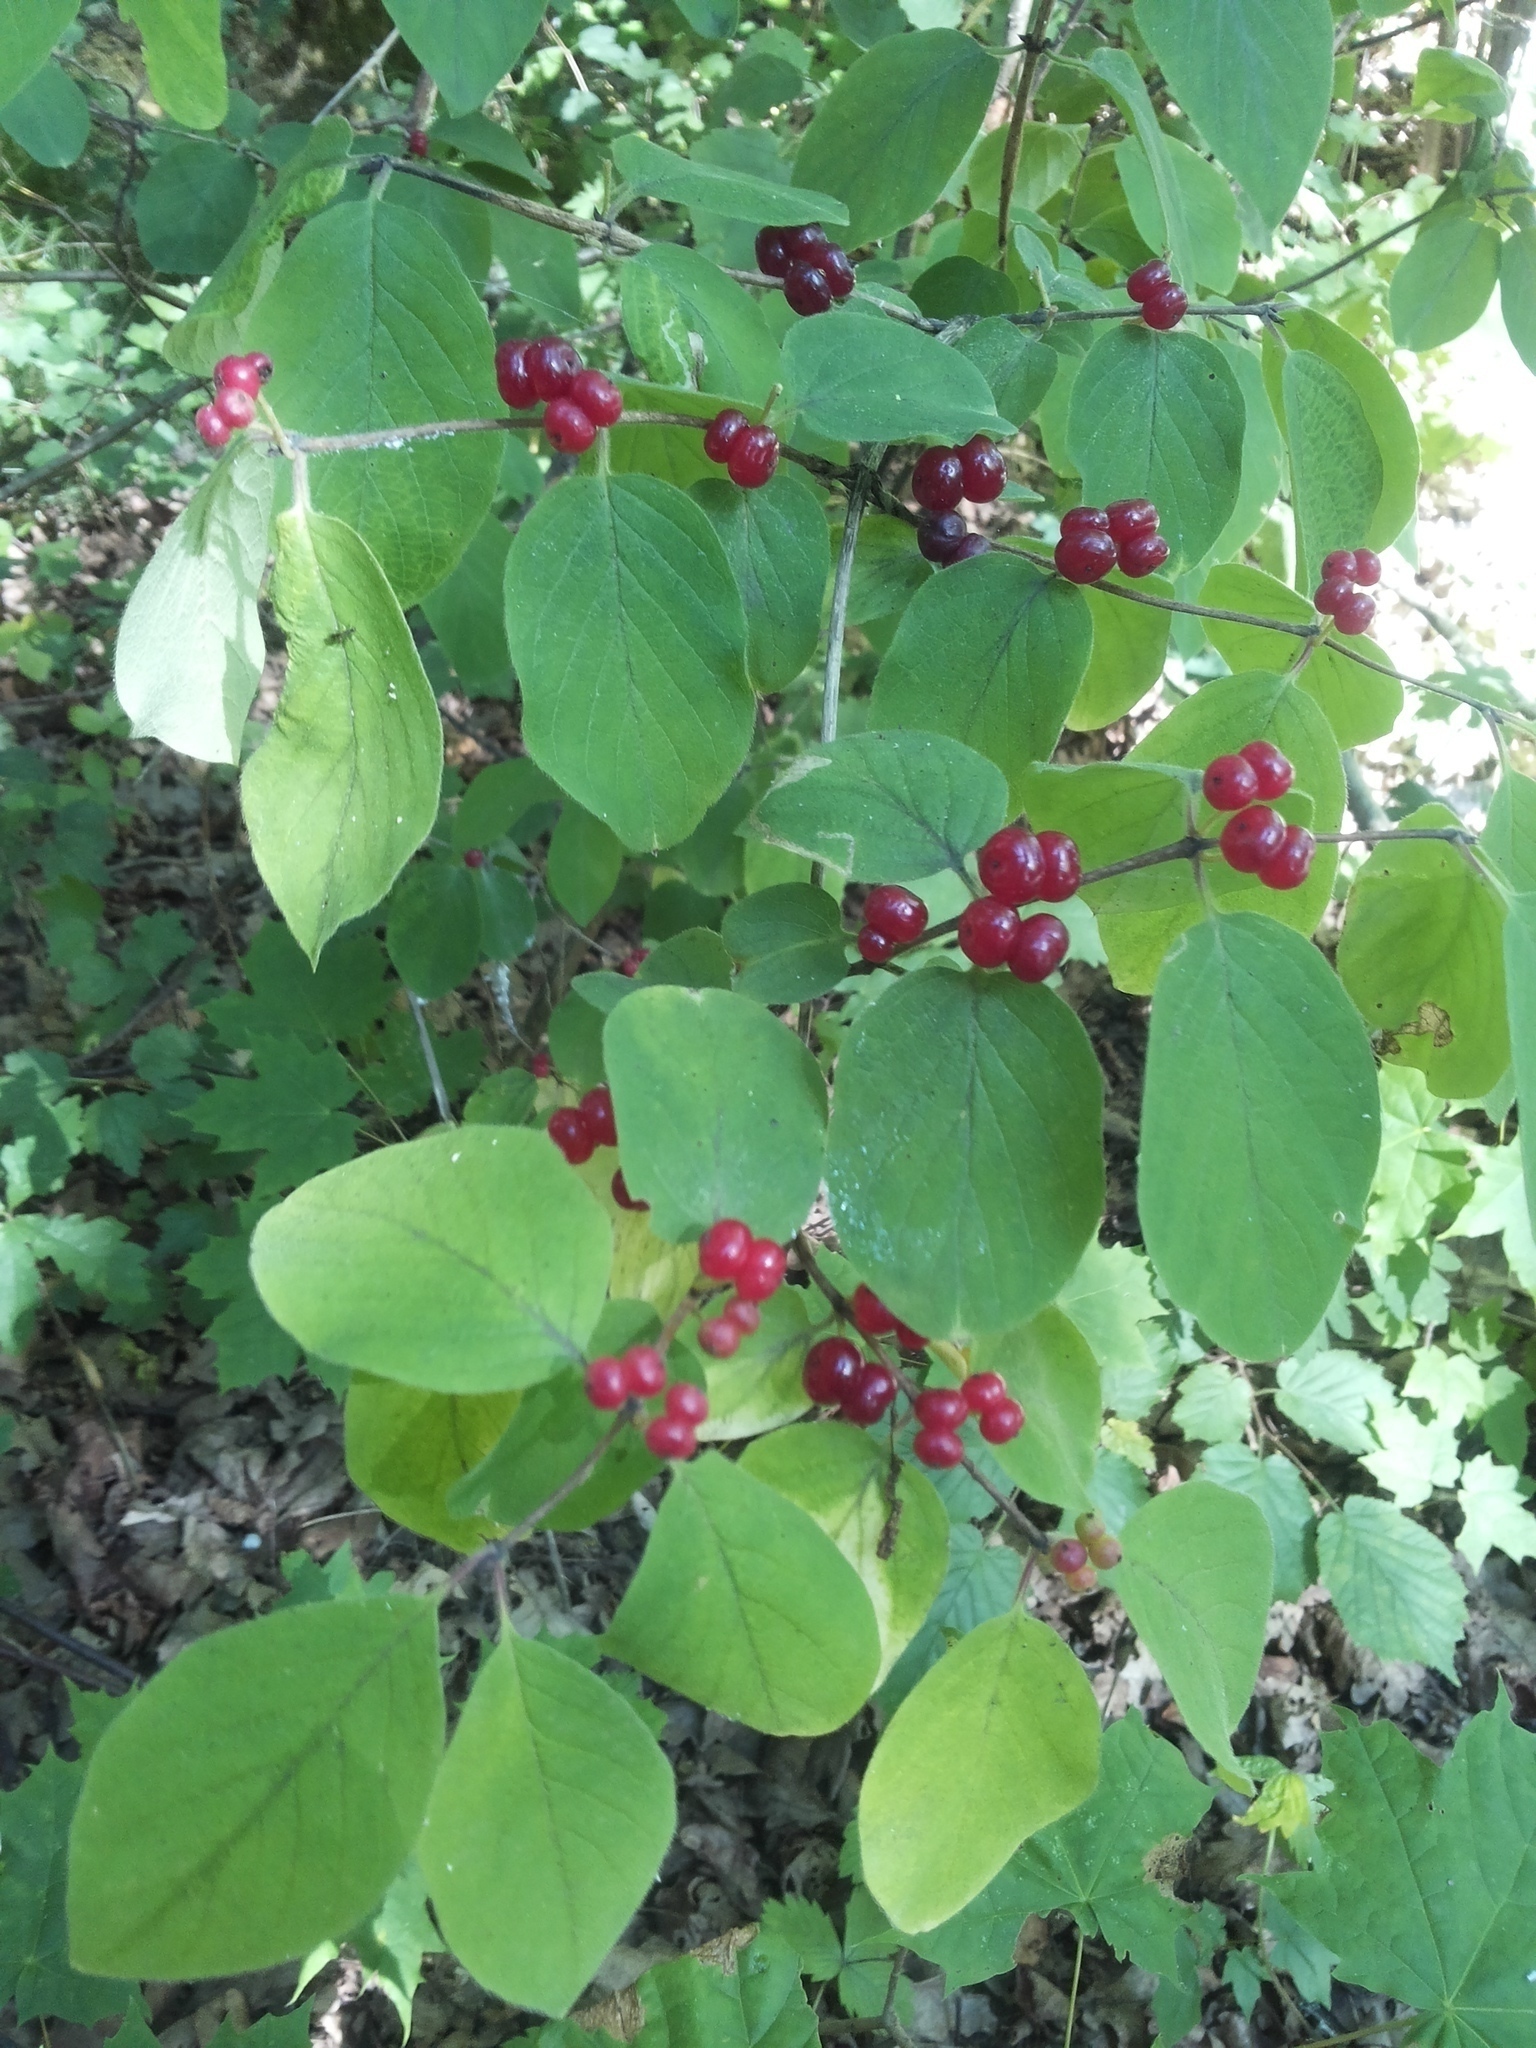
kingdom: Plantae
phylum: Tracheophyta
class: Magnoliopsida
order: Dipsacales
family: Caprifoliaceae
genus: Lonicera
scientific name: Lonicera xylosteum
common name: Fly honeysuckle
